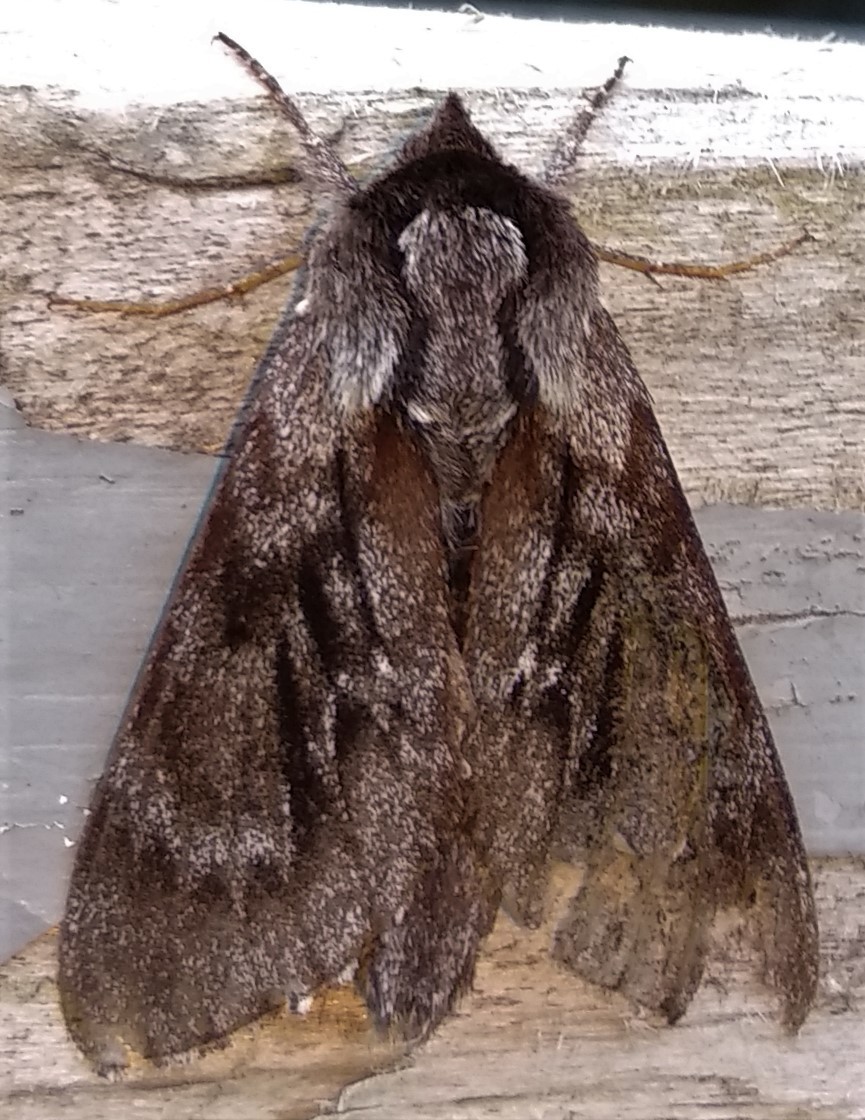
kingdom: Animalia
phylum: Arthropoda
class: Insecta
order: Lepidoptera
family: Sphingidae
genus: Lapara
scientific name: Lapara bombycoides
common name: Northern pine sphinx
